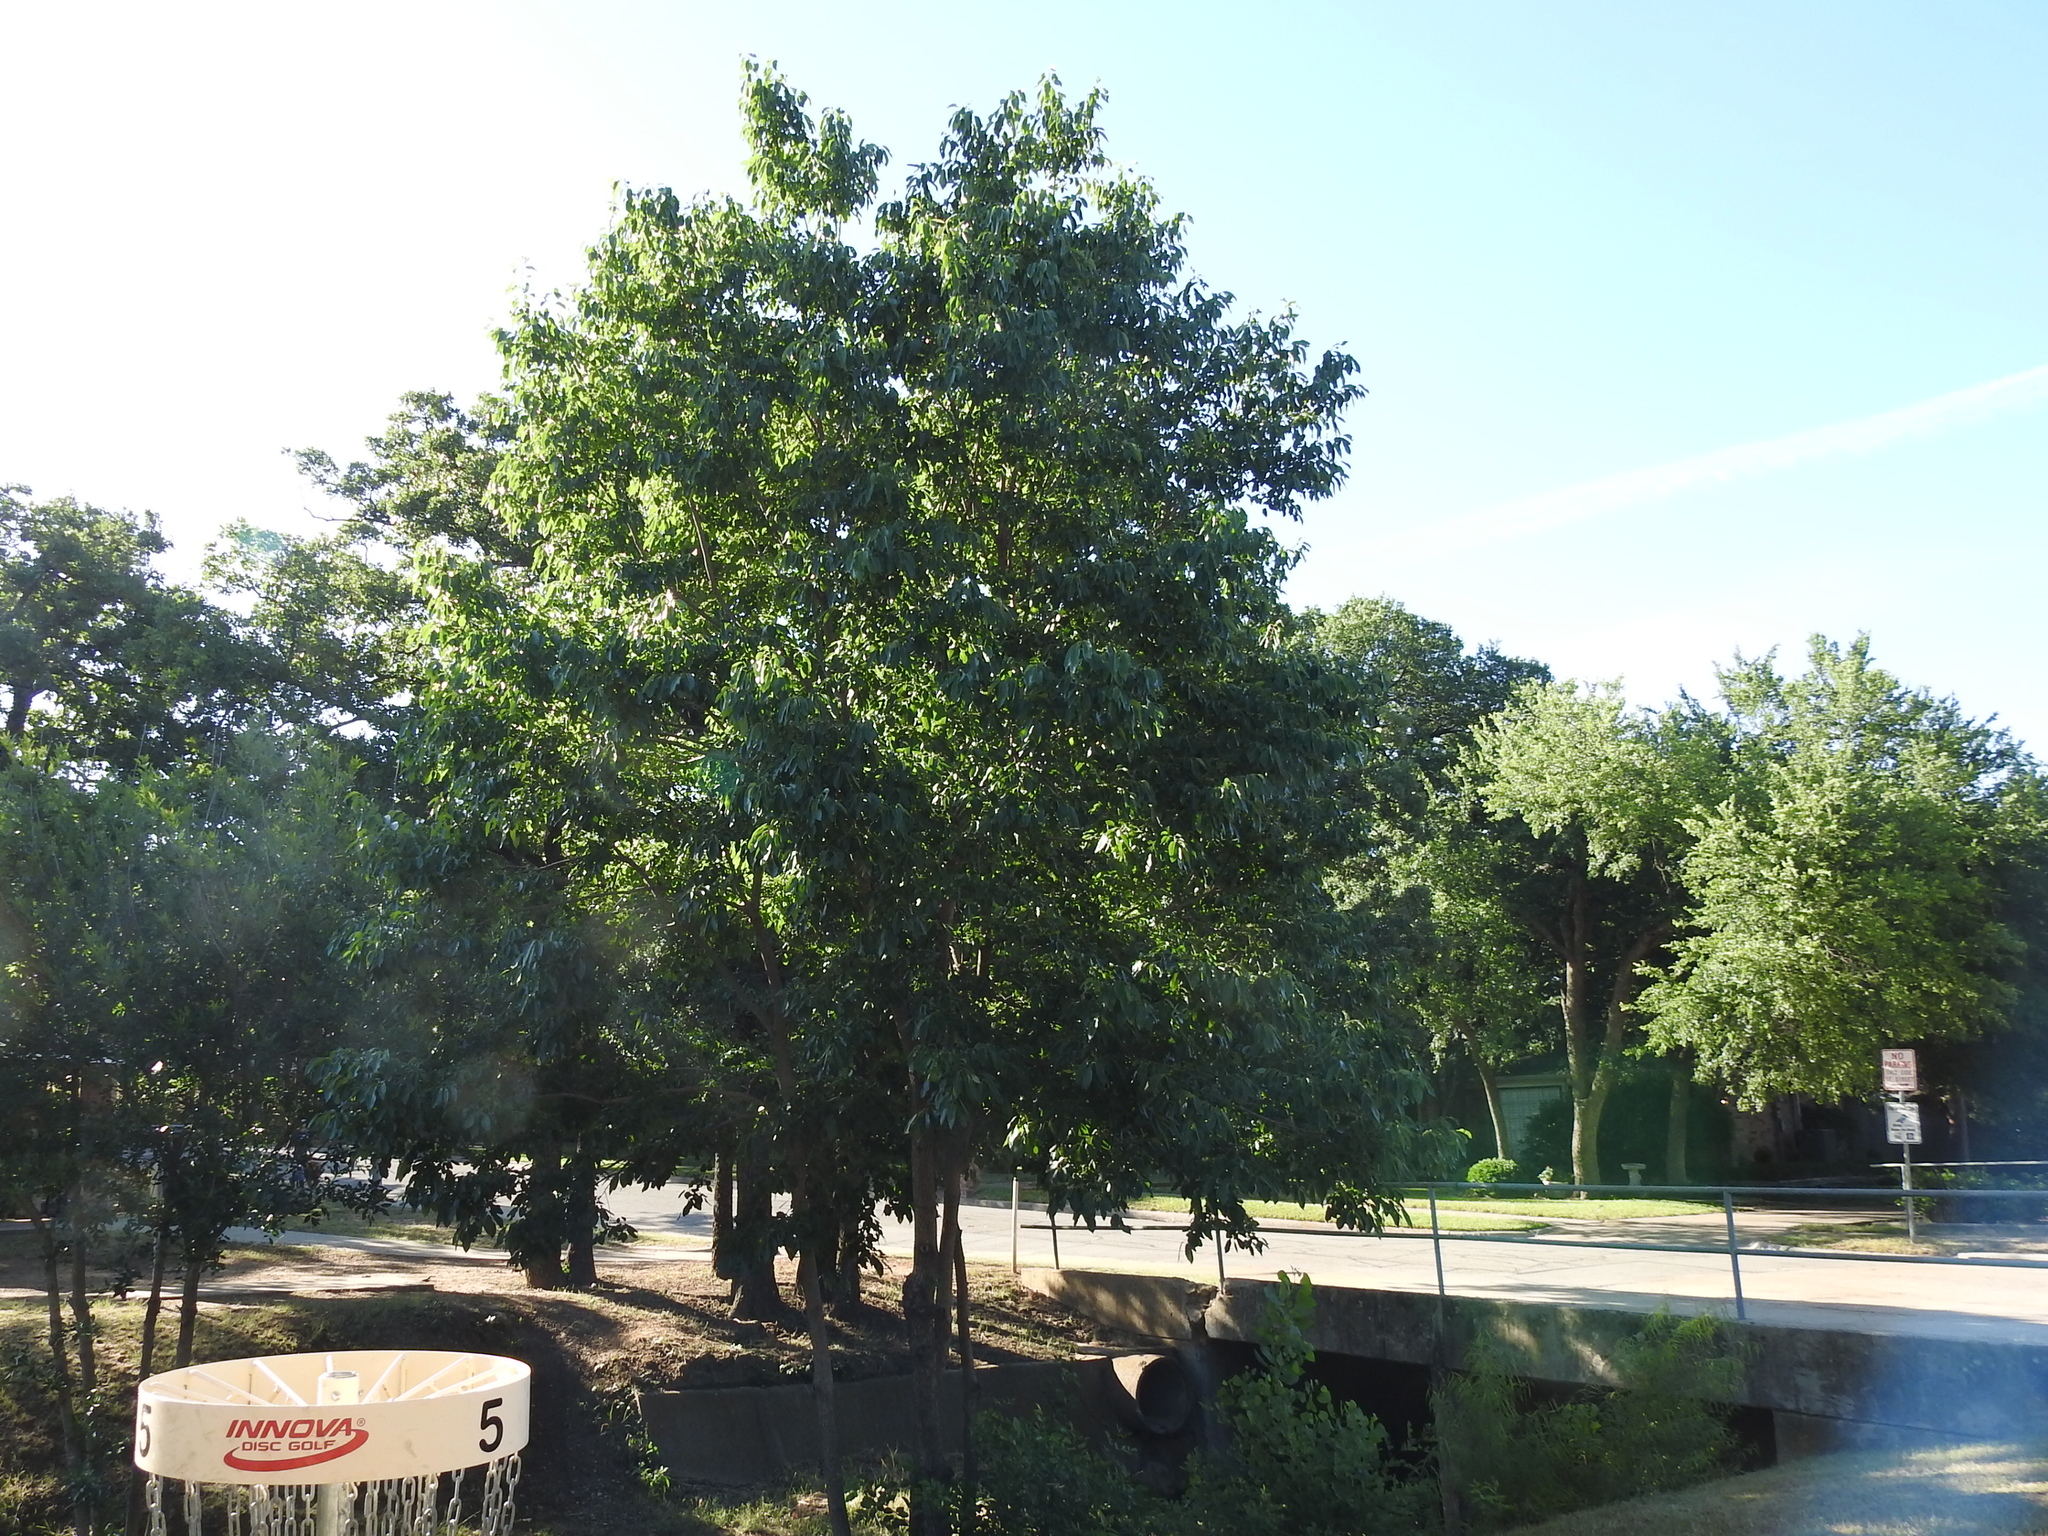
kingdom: Plantae
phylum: Tracheophyta
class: Magnoliopsida
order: Ericales
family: Ebenaceae
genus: Diospyros
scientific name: Diospyros virginiana
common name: Persimmon
